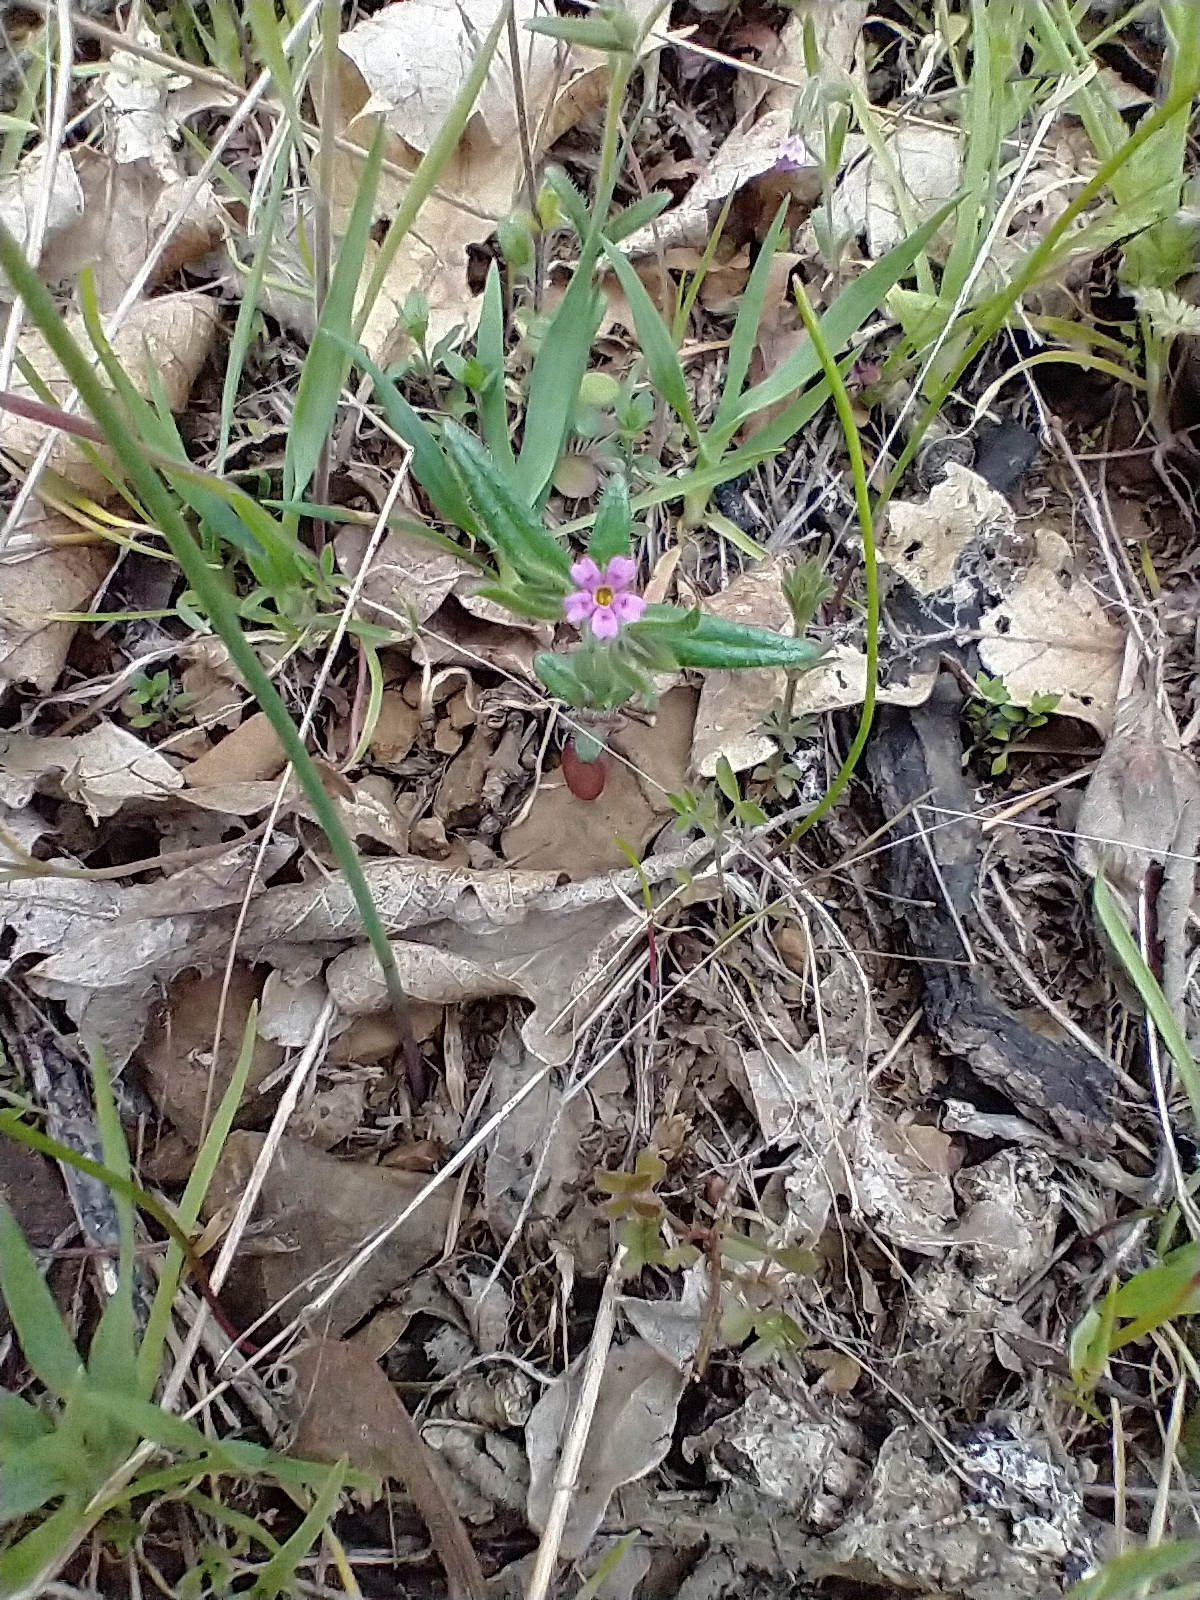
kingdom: Plantae
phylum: Tracheophyta
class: Magnoliopsida
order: Ericales
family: Polemoniaceae
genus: Phlox
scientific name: Phlox gracilis
